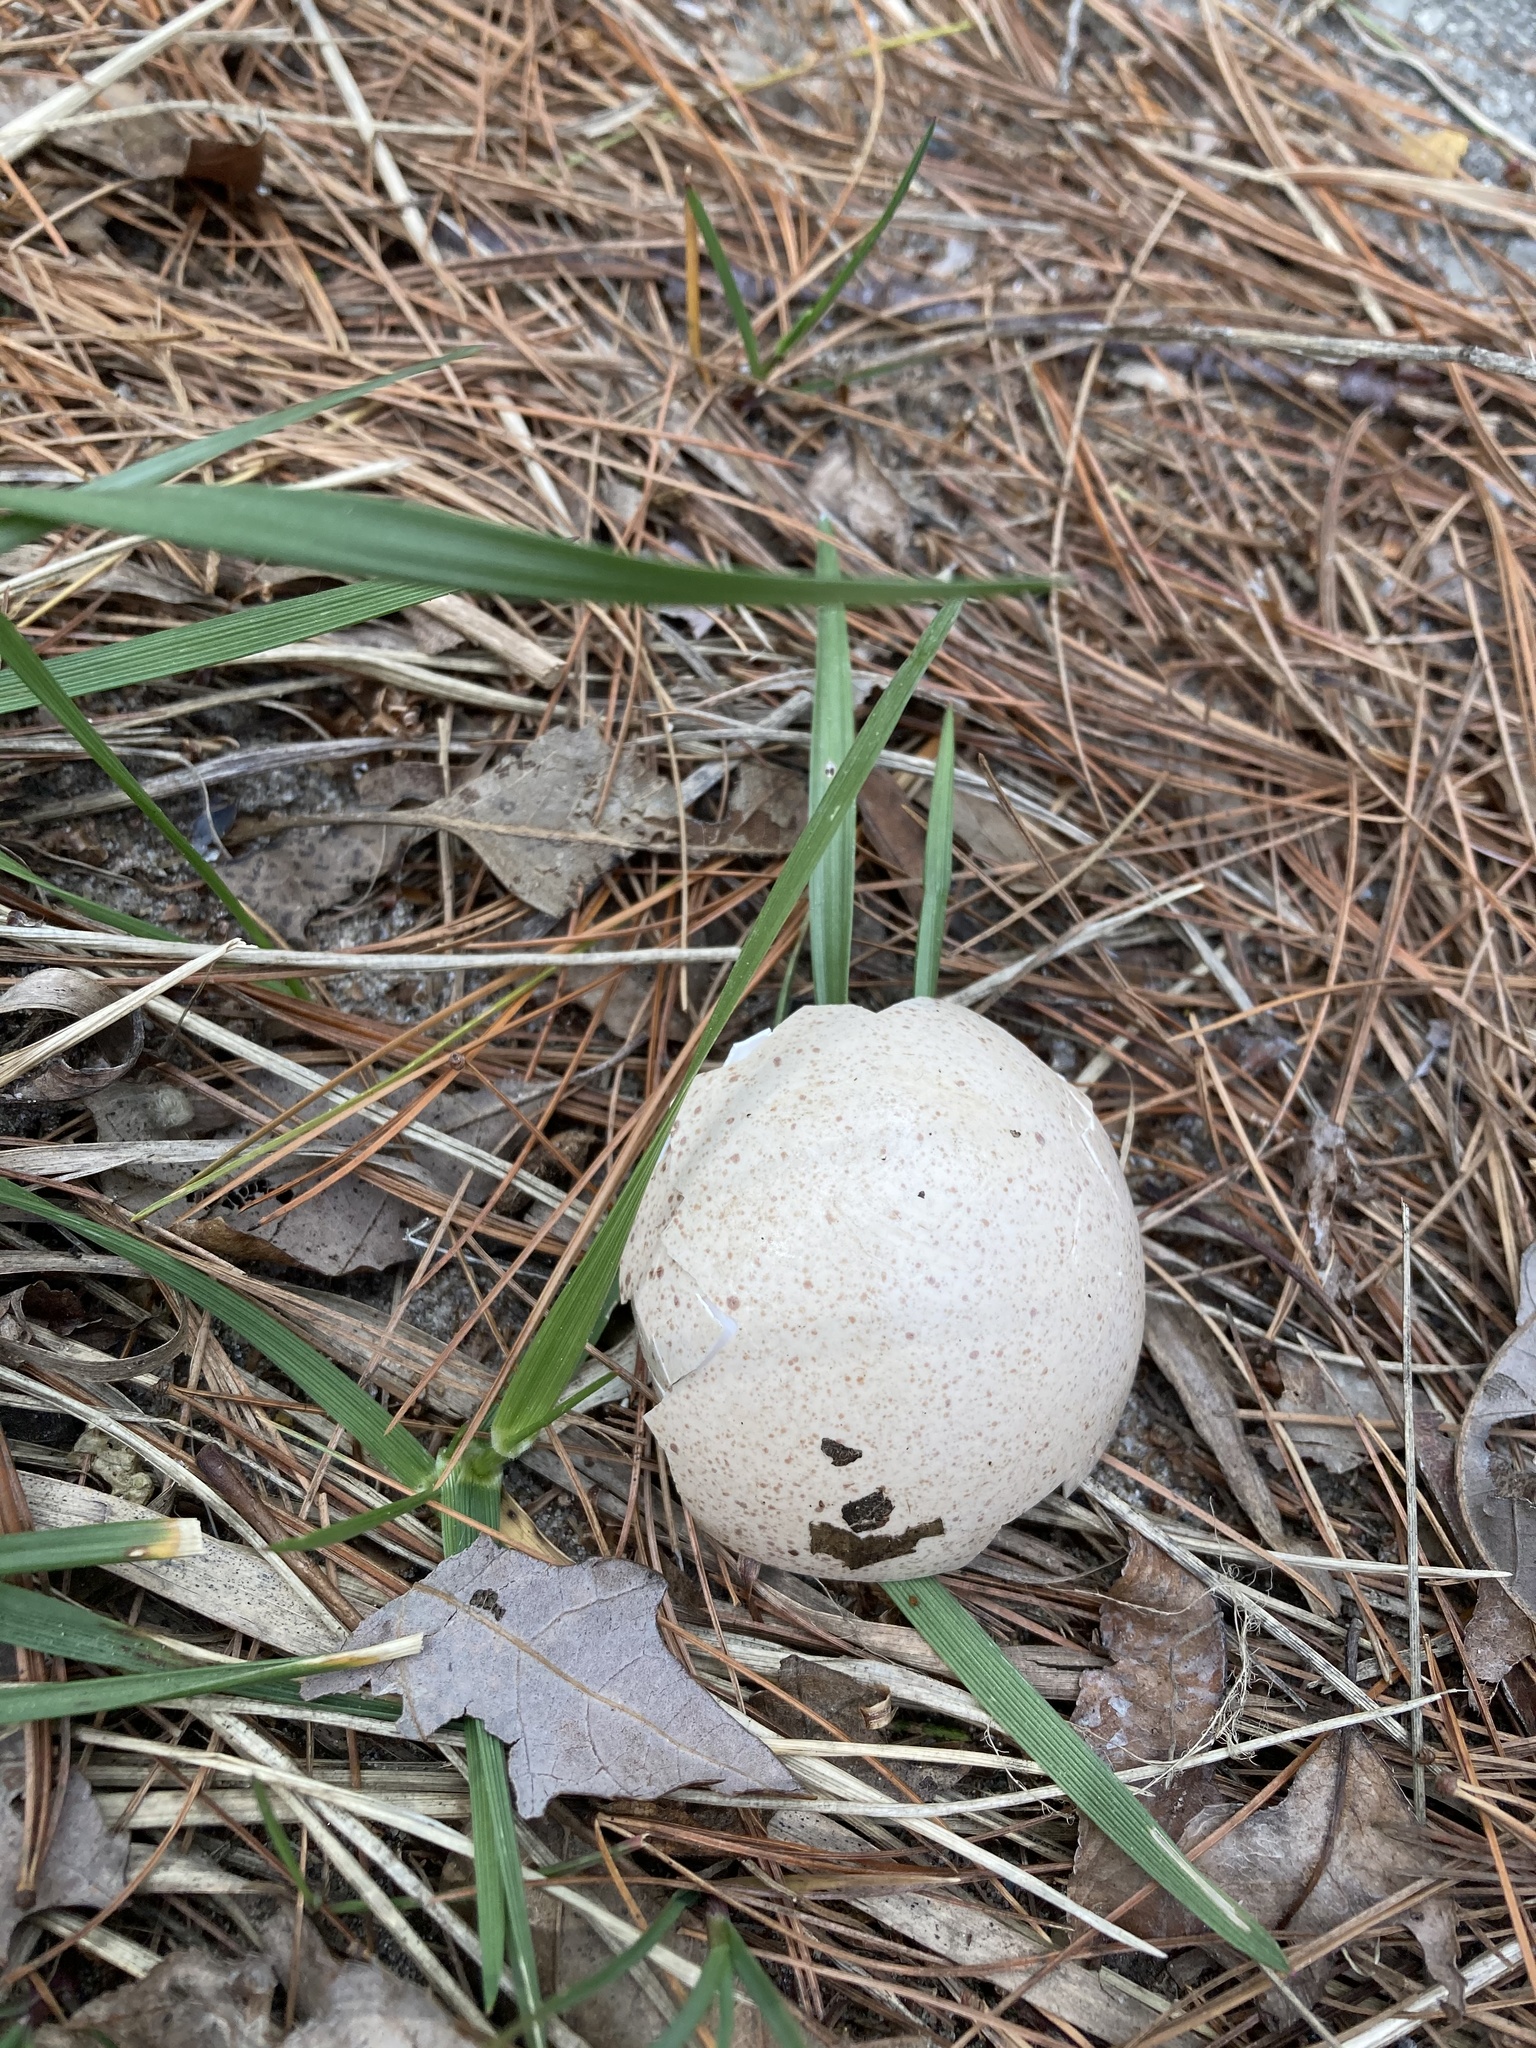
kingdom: Animalia
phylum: Chordata
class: Aves
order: Galliformes
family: Phasianidae
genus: Meleagris
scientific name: Meleagris gallopavo
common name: Wild turkey
